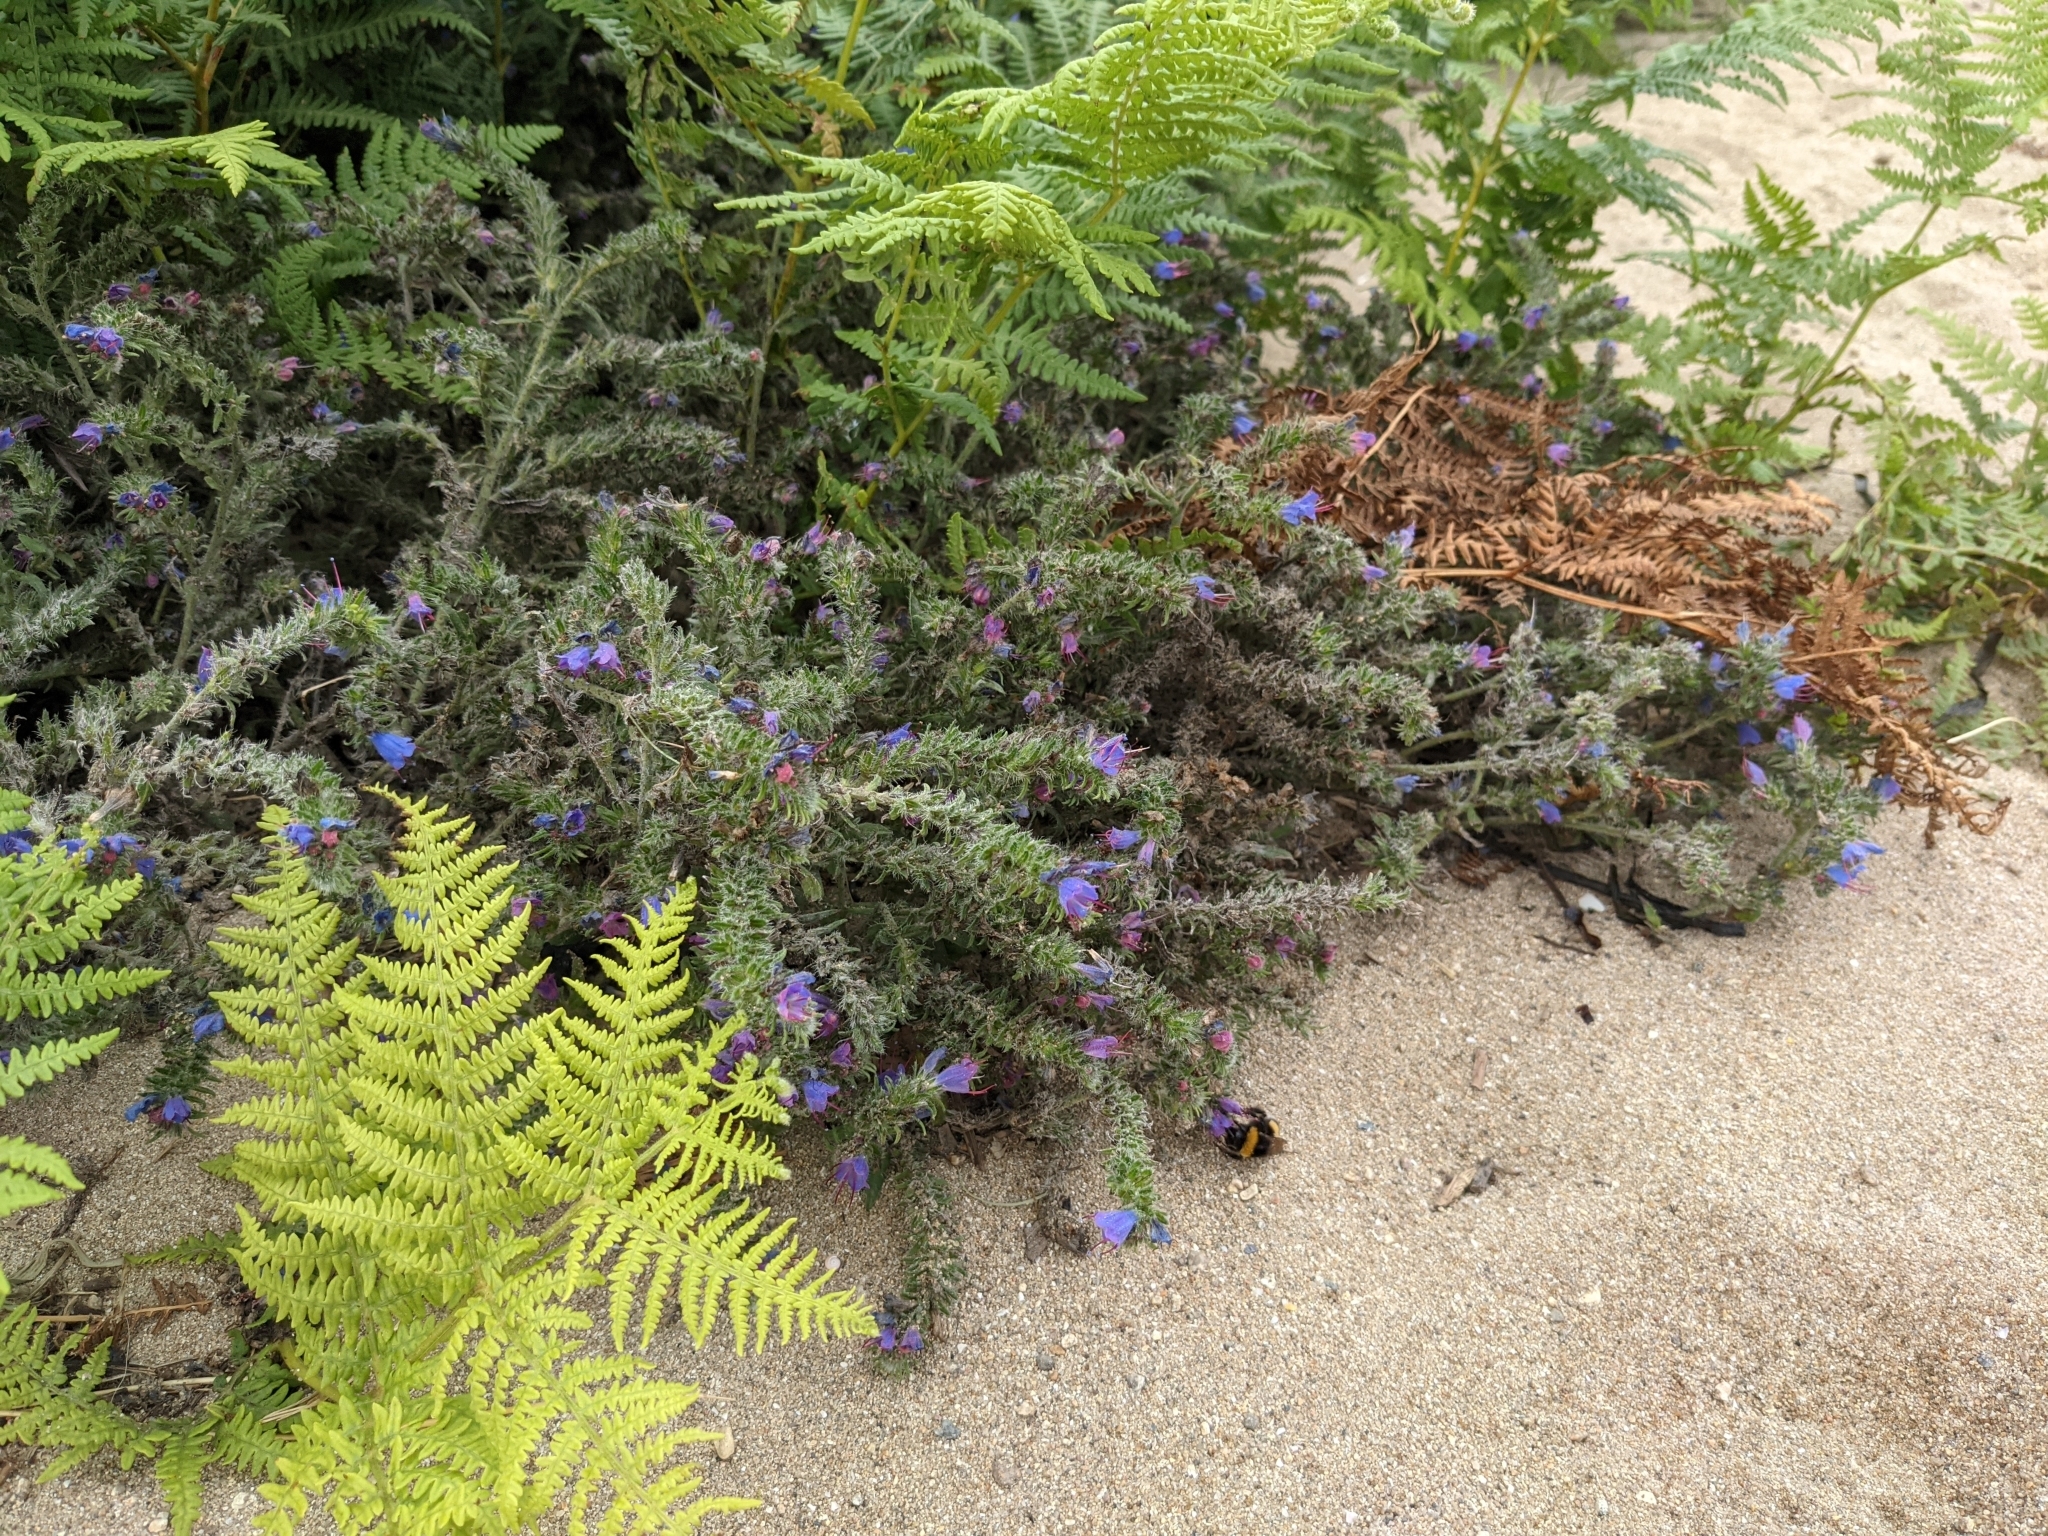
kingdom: Plantae
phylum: Tracheophyta
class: Magnoliopsida
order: Boraginales
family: Boraginaceae
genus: Echium
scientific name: Echium vulgare
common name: Common viper's bugloss
